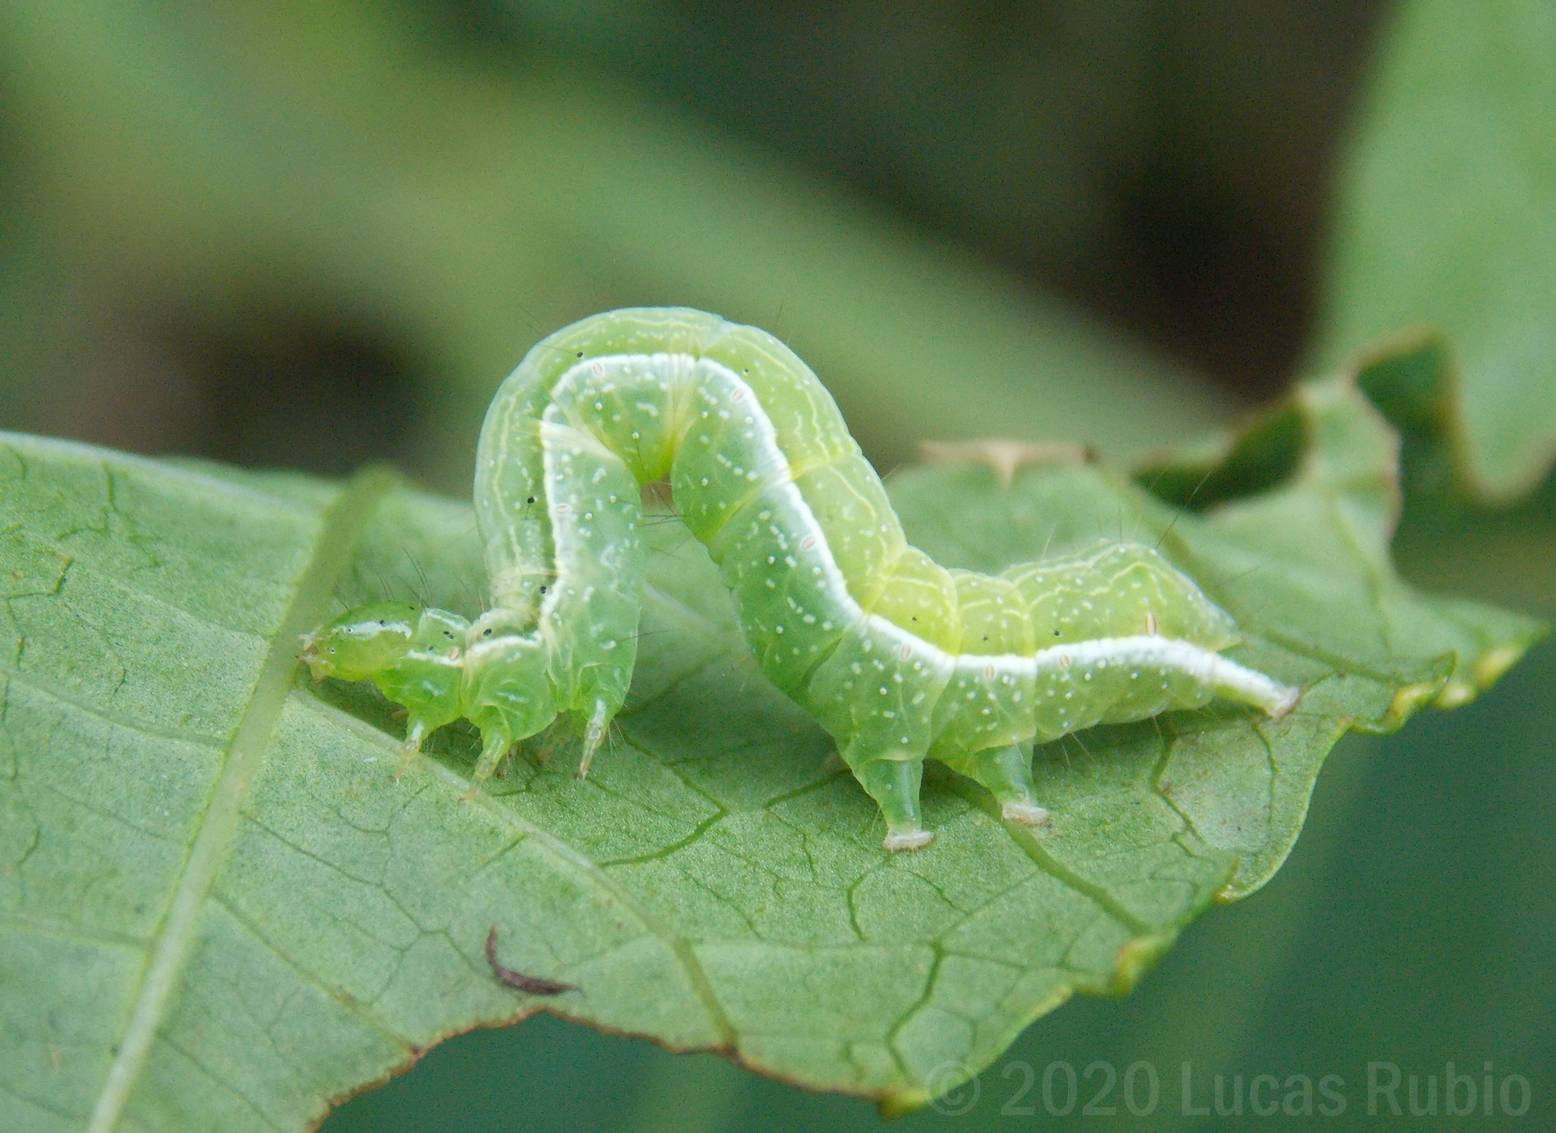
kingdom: Animalia
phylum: Arthropoda
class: Insecta
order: Lepidoptera
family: Noctuidae
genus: Chrysodeixis
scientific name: Chrysodeixis includens
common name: Cutworm moth
